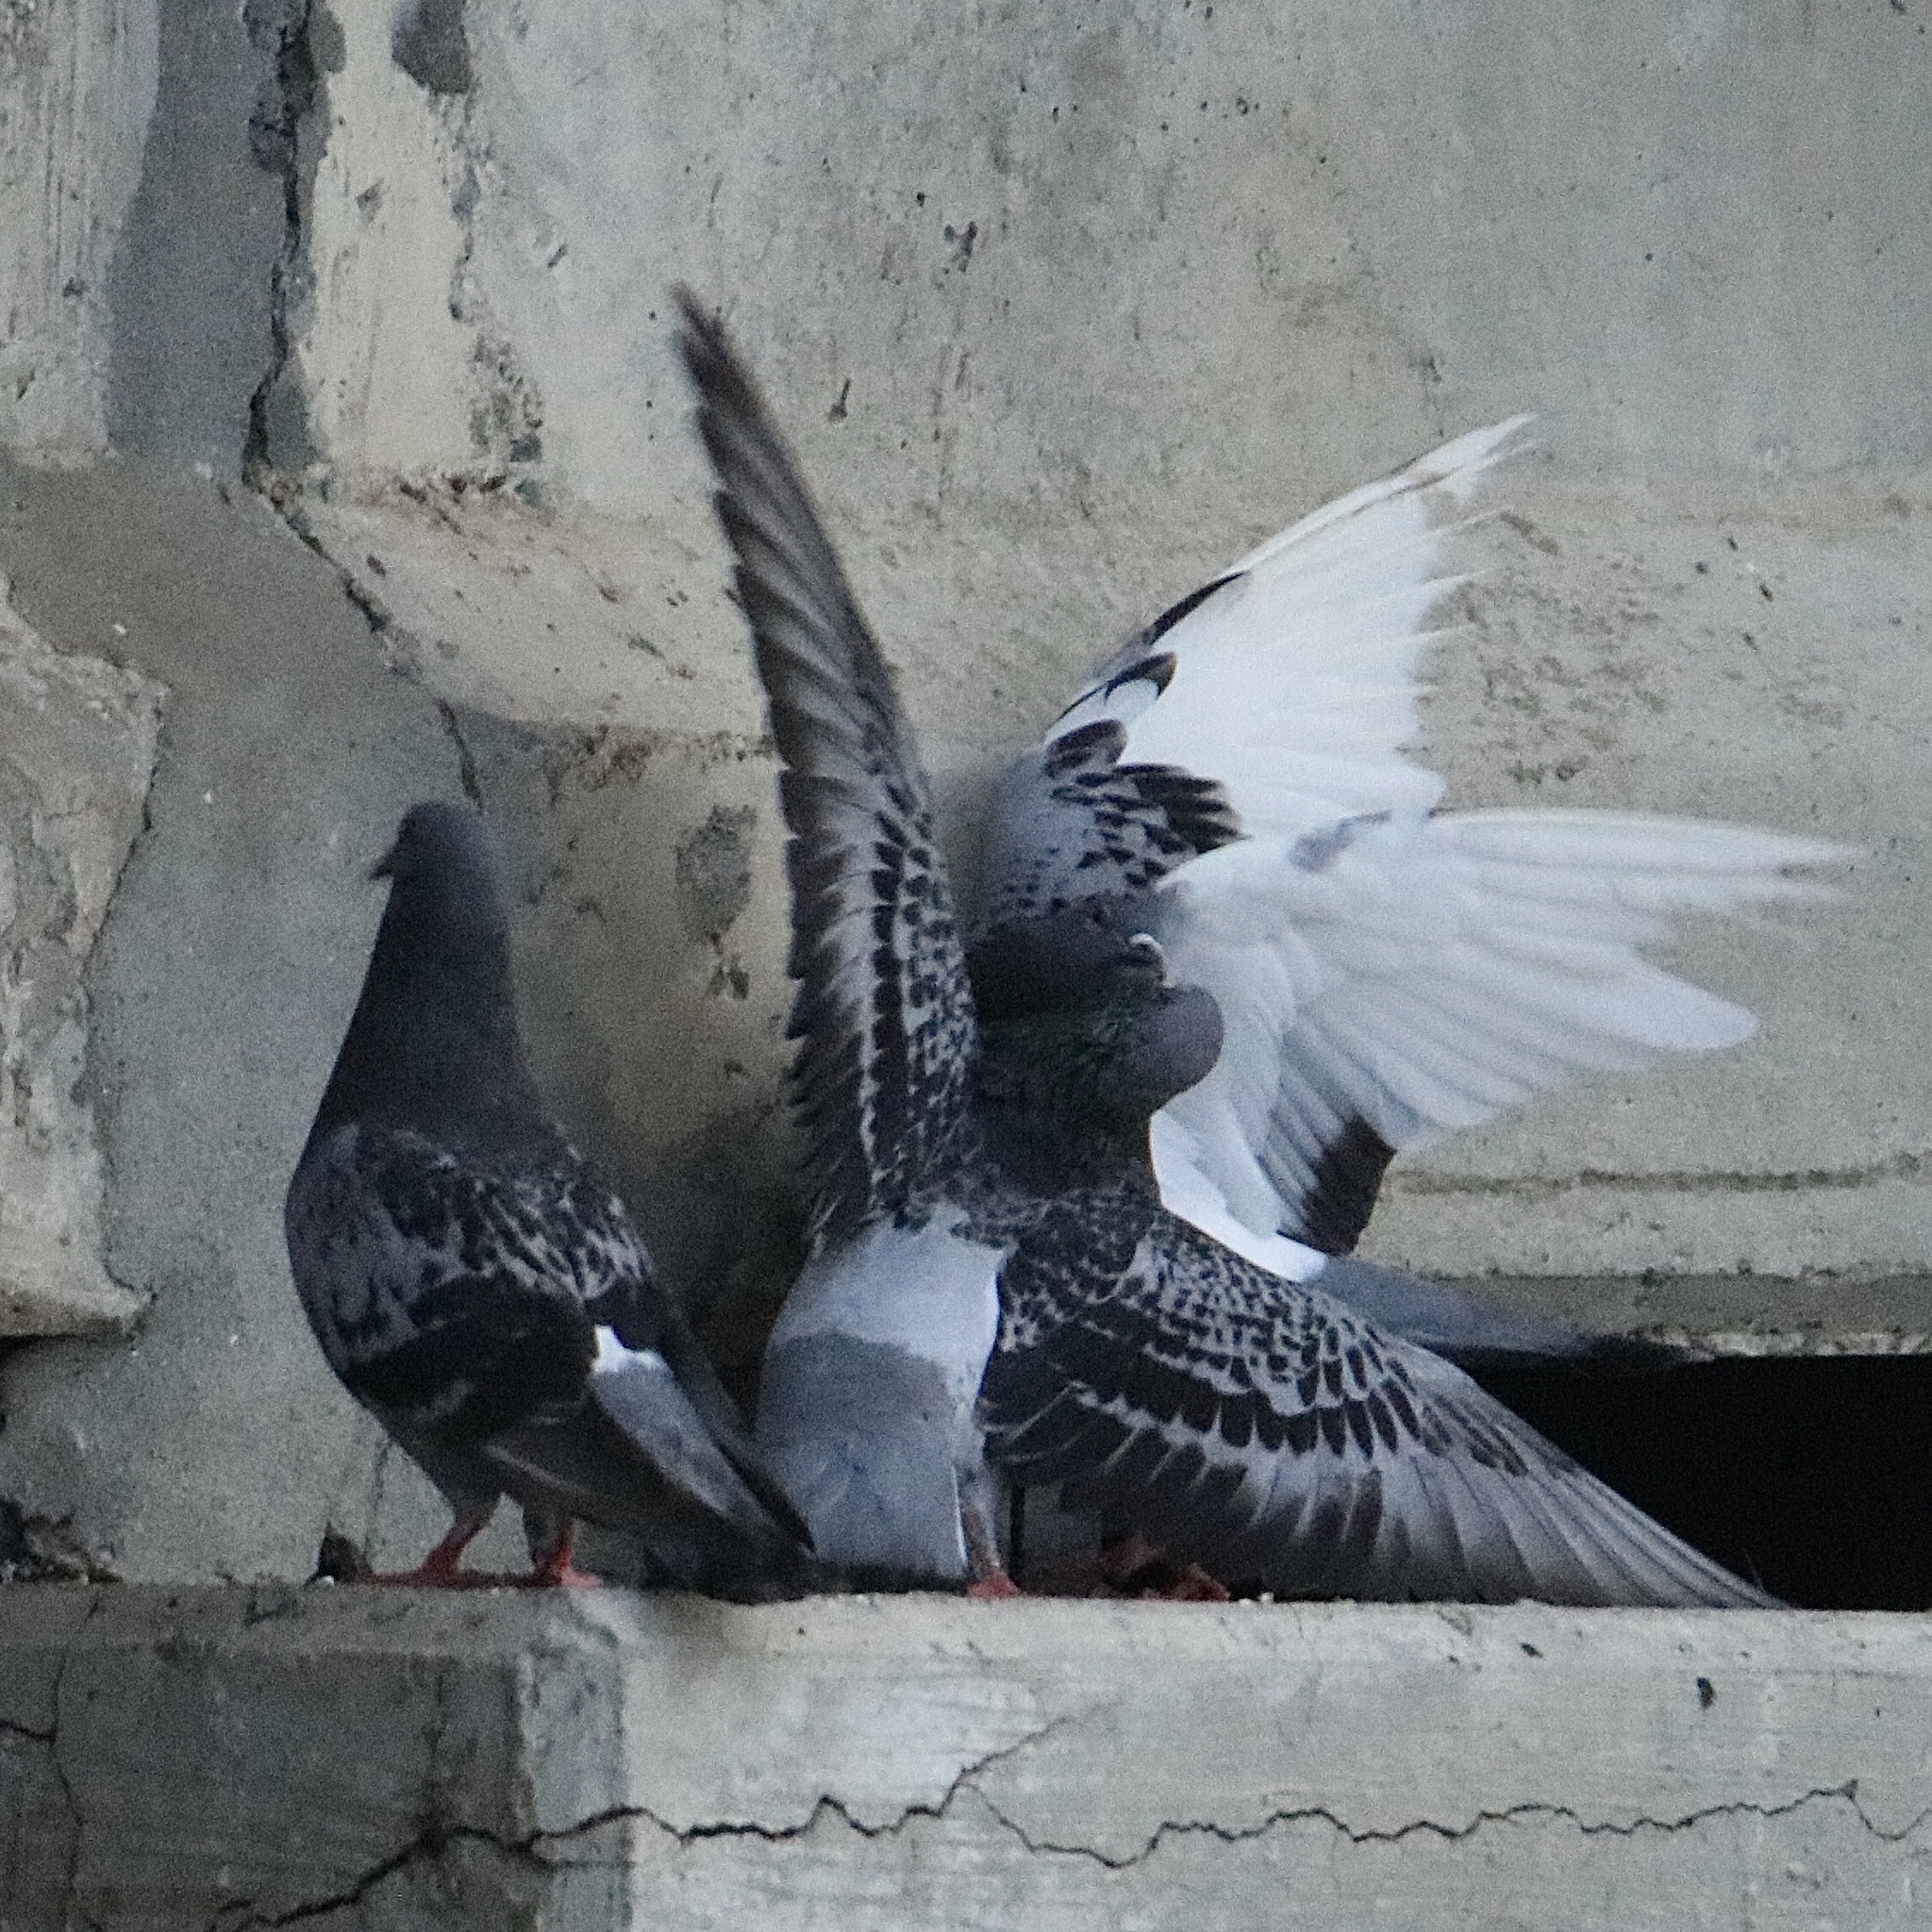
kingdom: Animalia
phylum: Chordata
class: Aves
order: Columbiformes
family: Columbidae
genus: Columba
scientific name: Columba livia
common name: Rock pigeon
